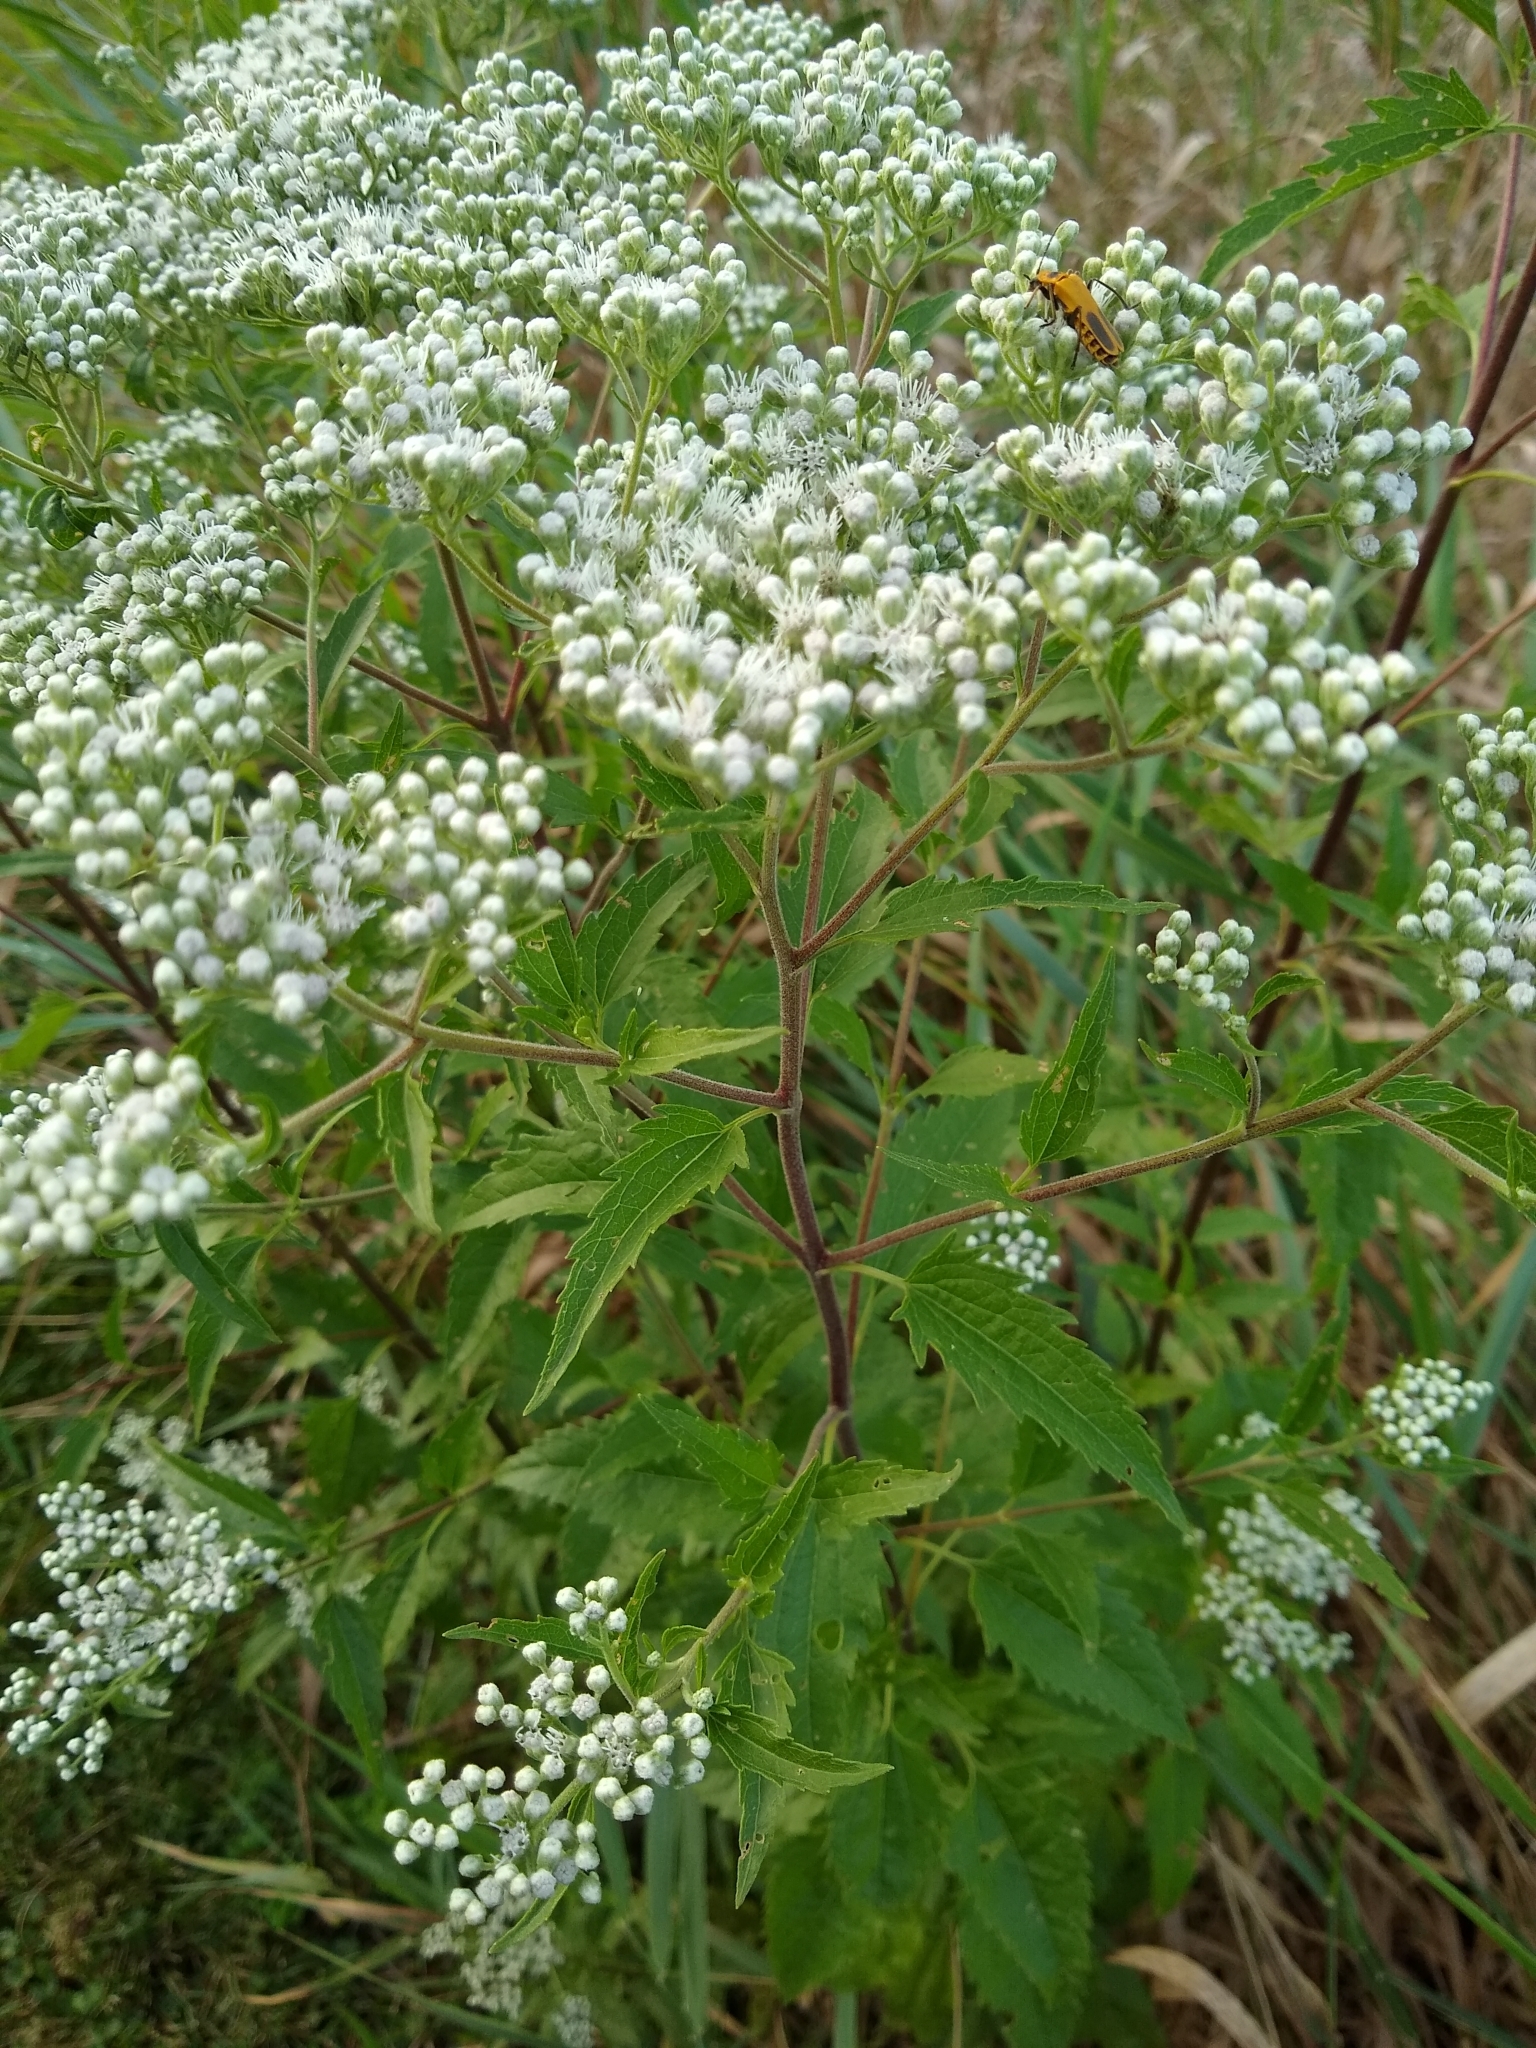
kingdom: Plantae
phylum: Tracheophyta
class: Magnoliopsida
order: Asterales
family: Asteraceae
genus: Eupatorium
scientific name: Eupatorium serotinum
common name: Late boneset
